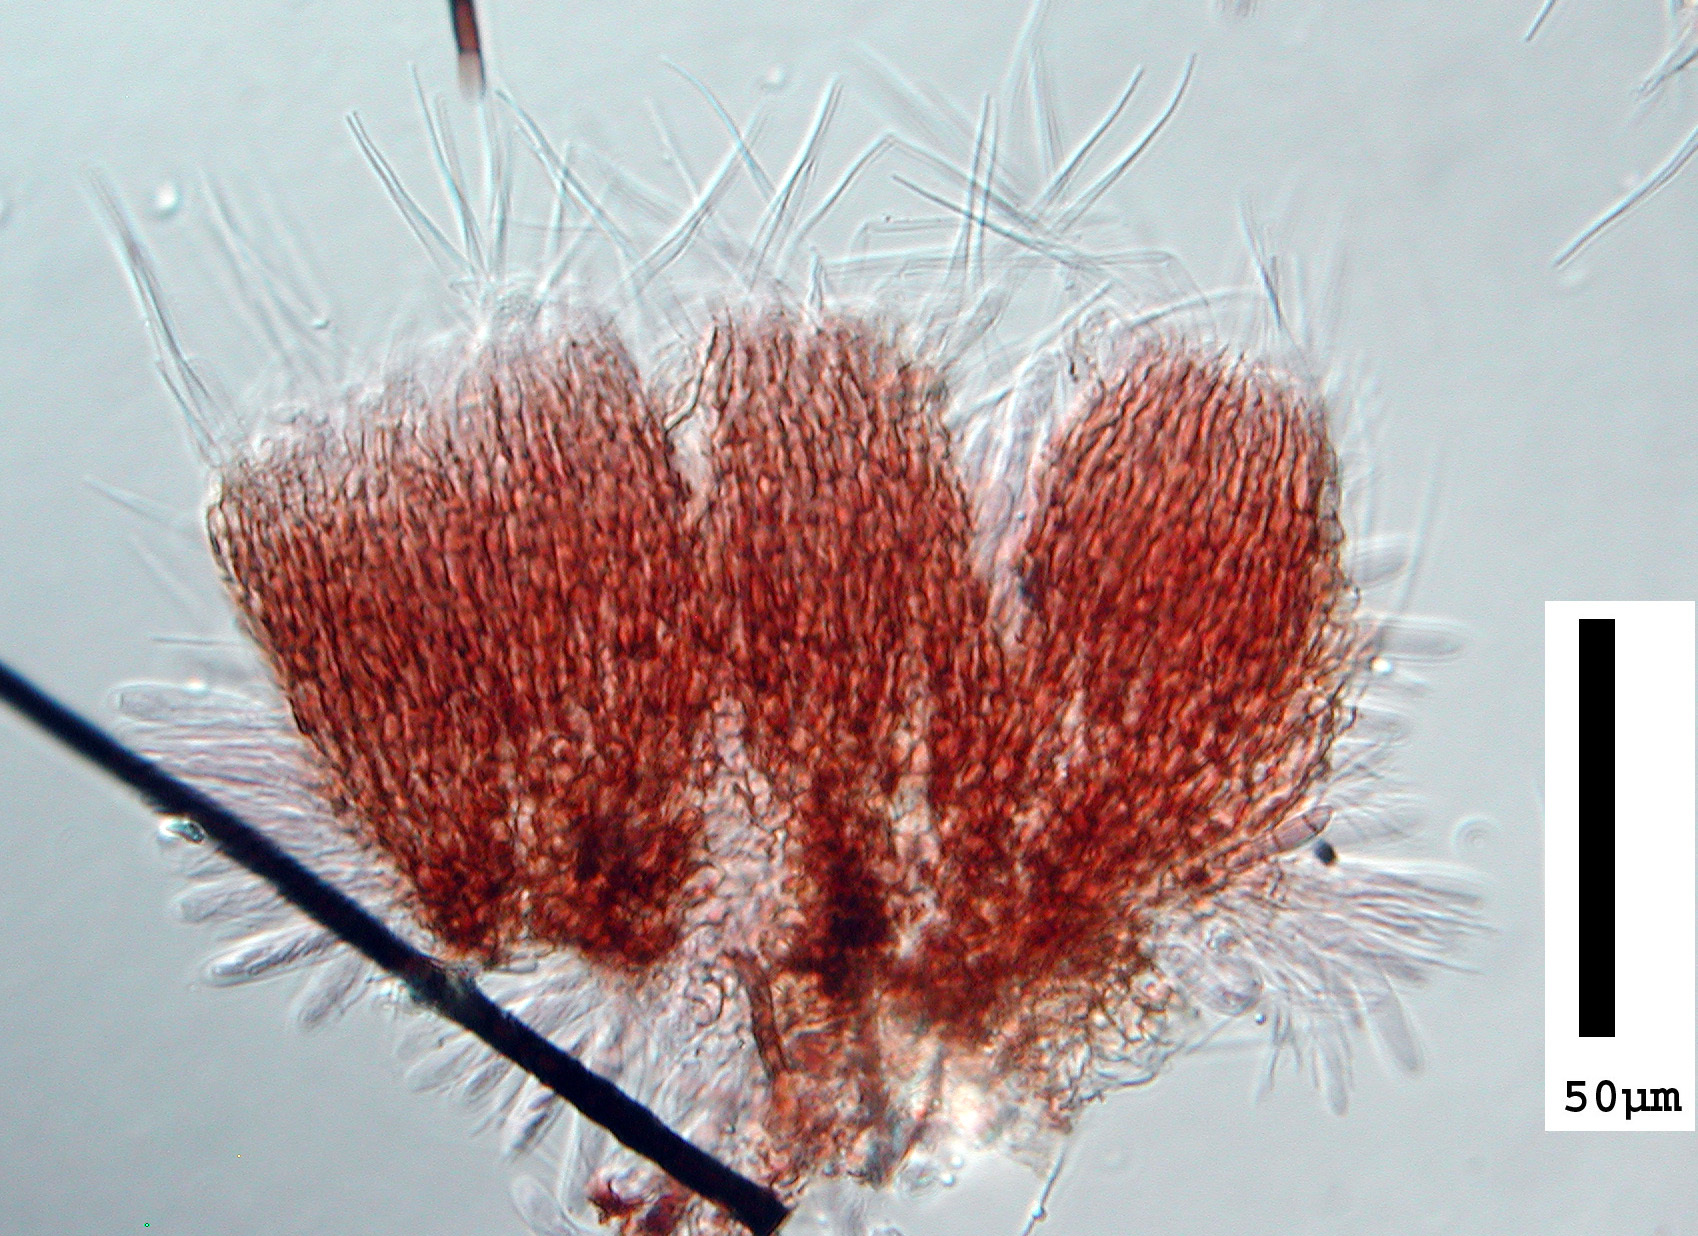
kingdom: Fungi
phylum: Ascomycota
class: Leotiomycetes
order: Helotiales
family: Hyaloscyphaceae
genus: Dematioscypha
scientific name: Dematioscypha dematiicola
